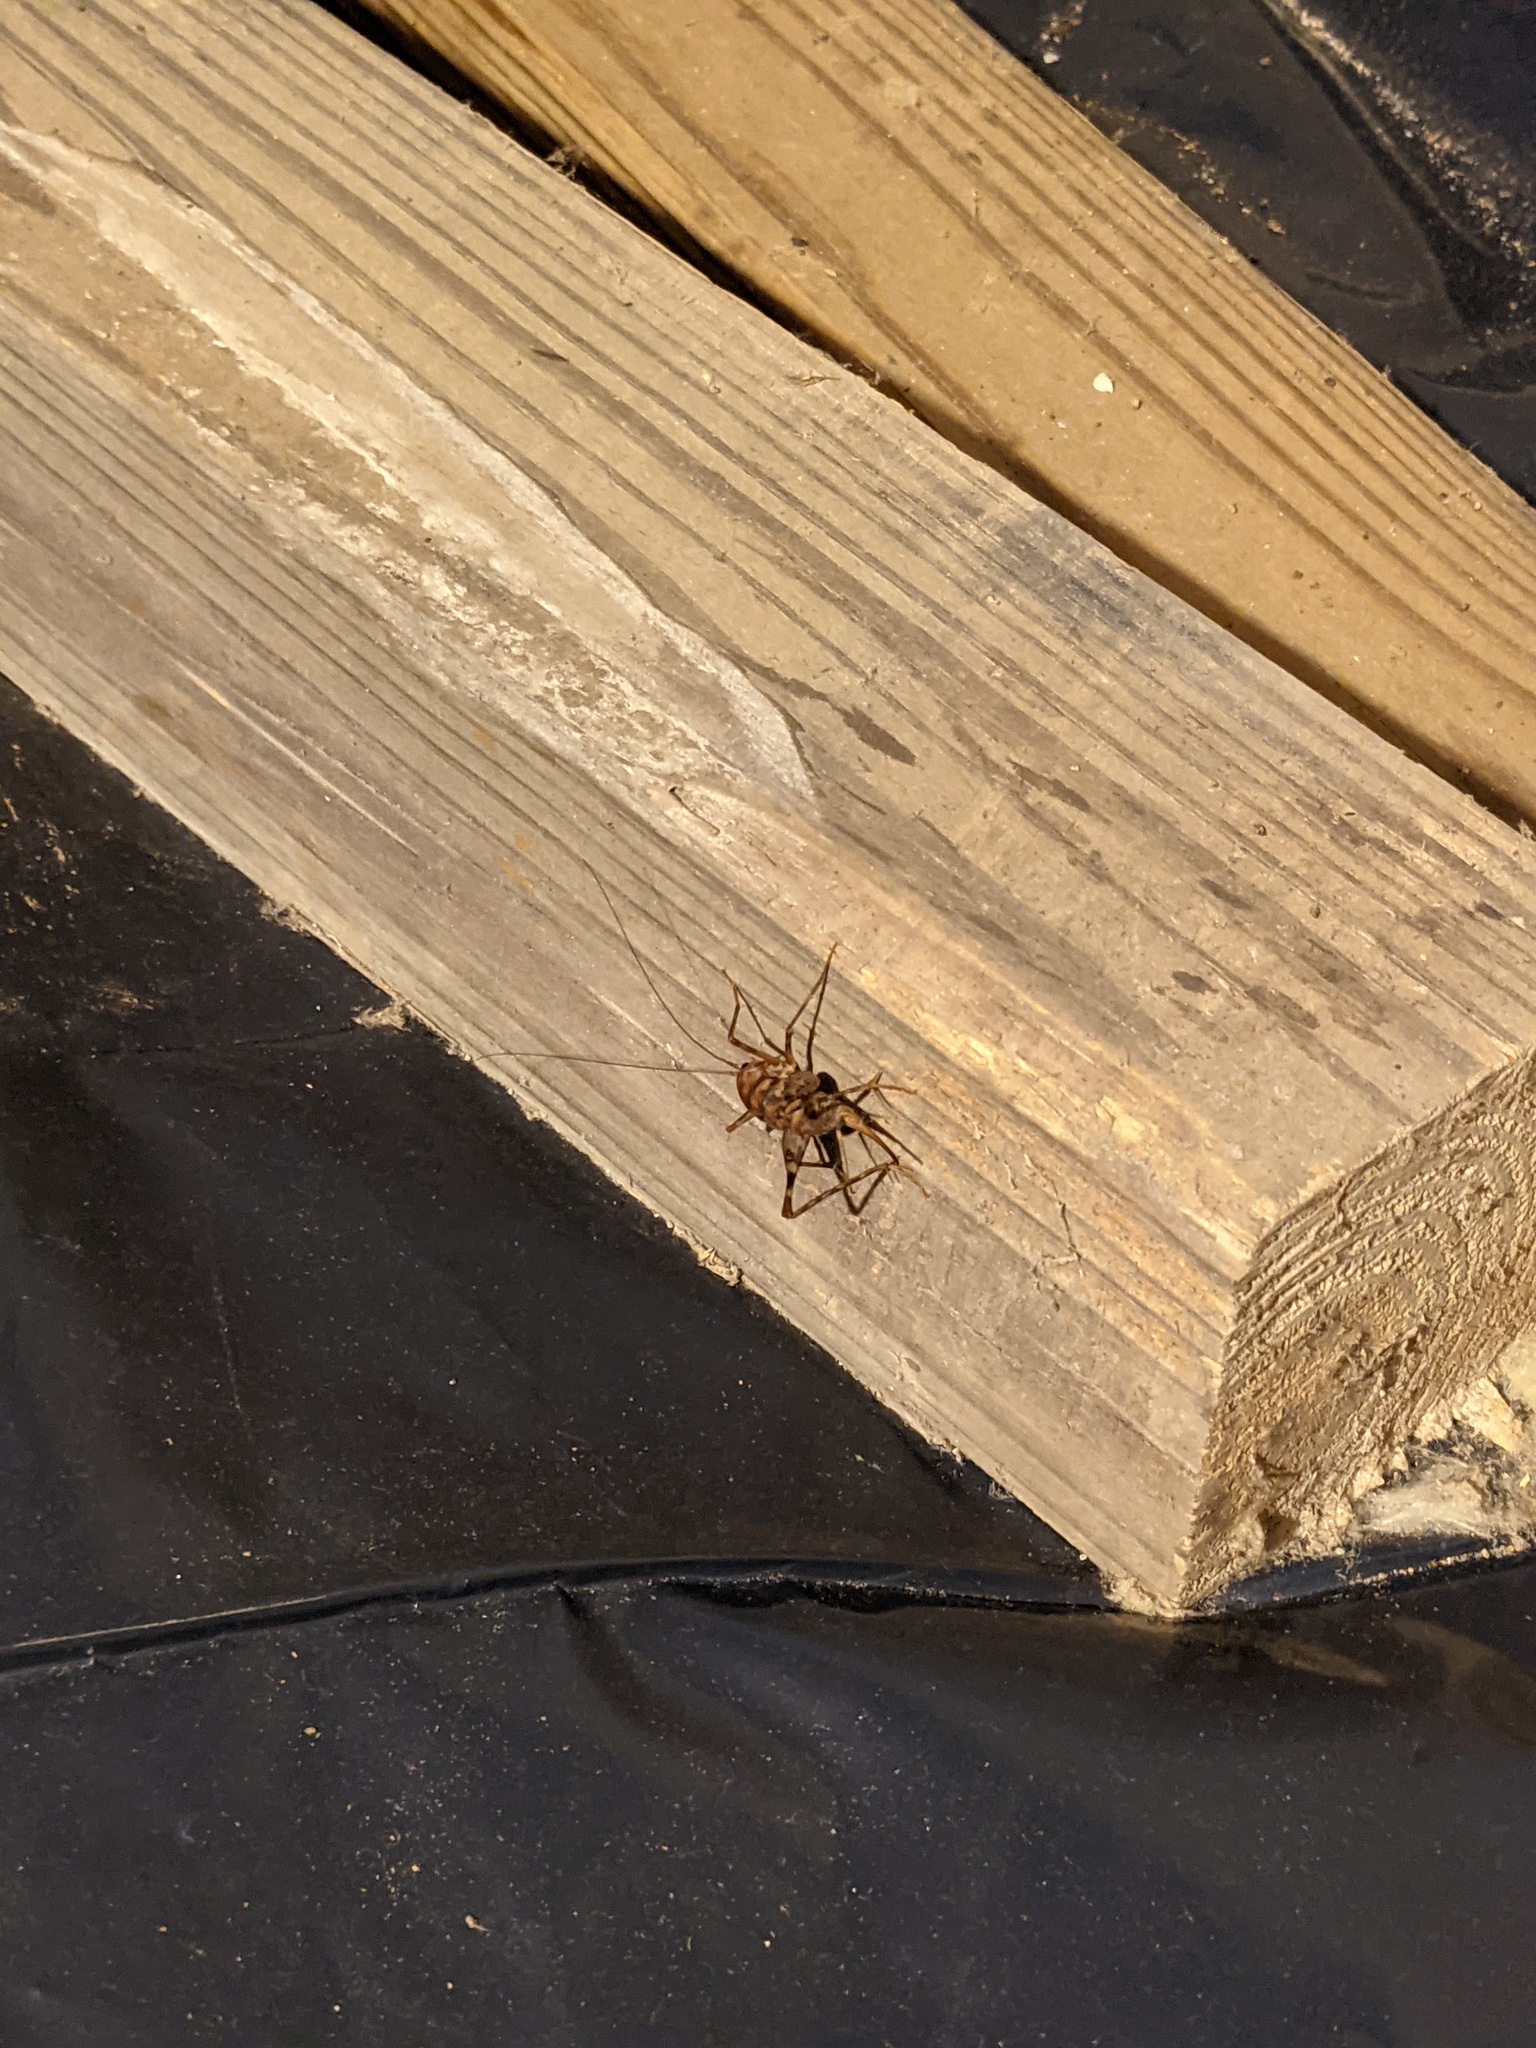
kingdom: Animalia
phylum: Arthropoda
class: Insecta
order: Orthoptera
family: Rhaphidophoridae
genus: Tachycines
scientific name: Tachycines asynamorus
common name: Greenhouse camel cricket
